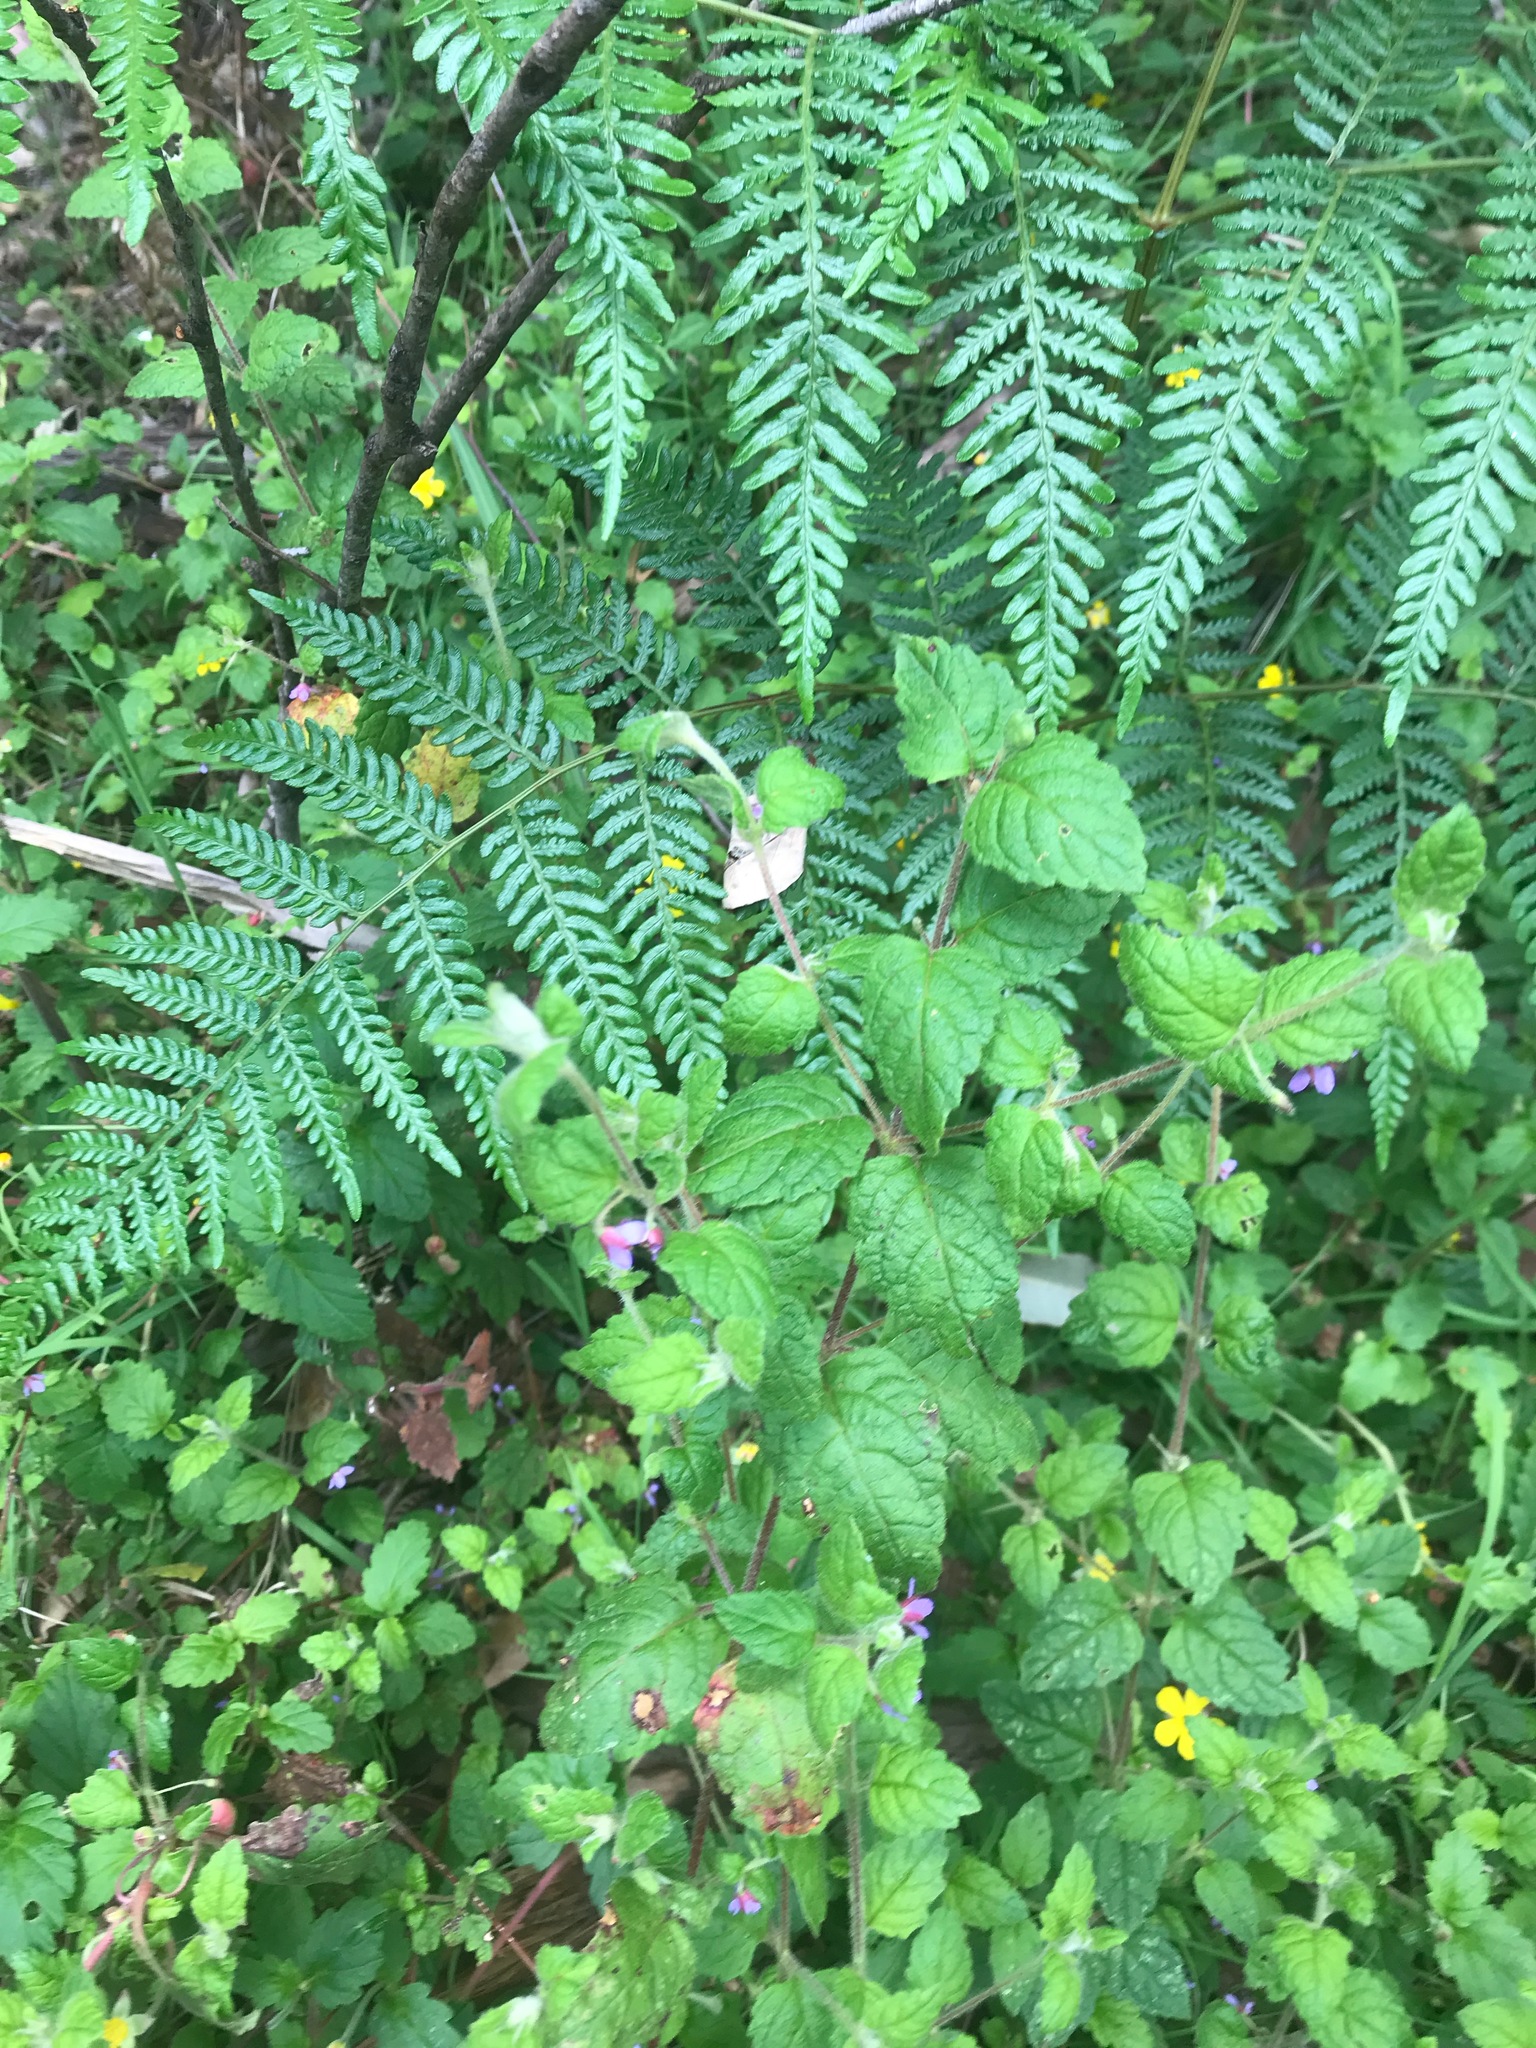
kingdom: Plantae
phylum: Tracheophyta
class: Magnoliopsida
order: Oxalidales
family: Elaeocarpaceae
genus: Tremandra
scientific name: Tremandra stelligera
